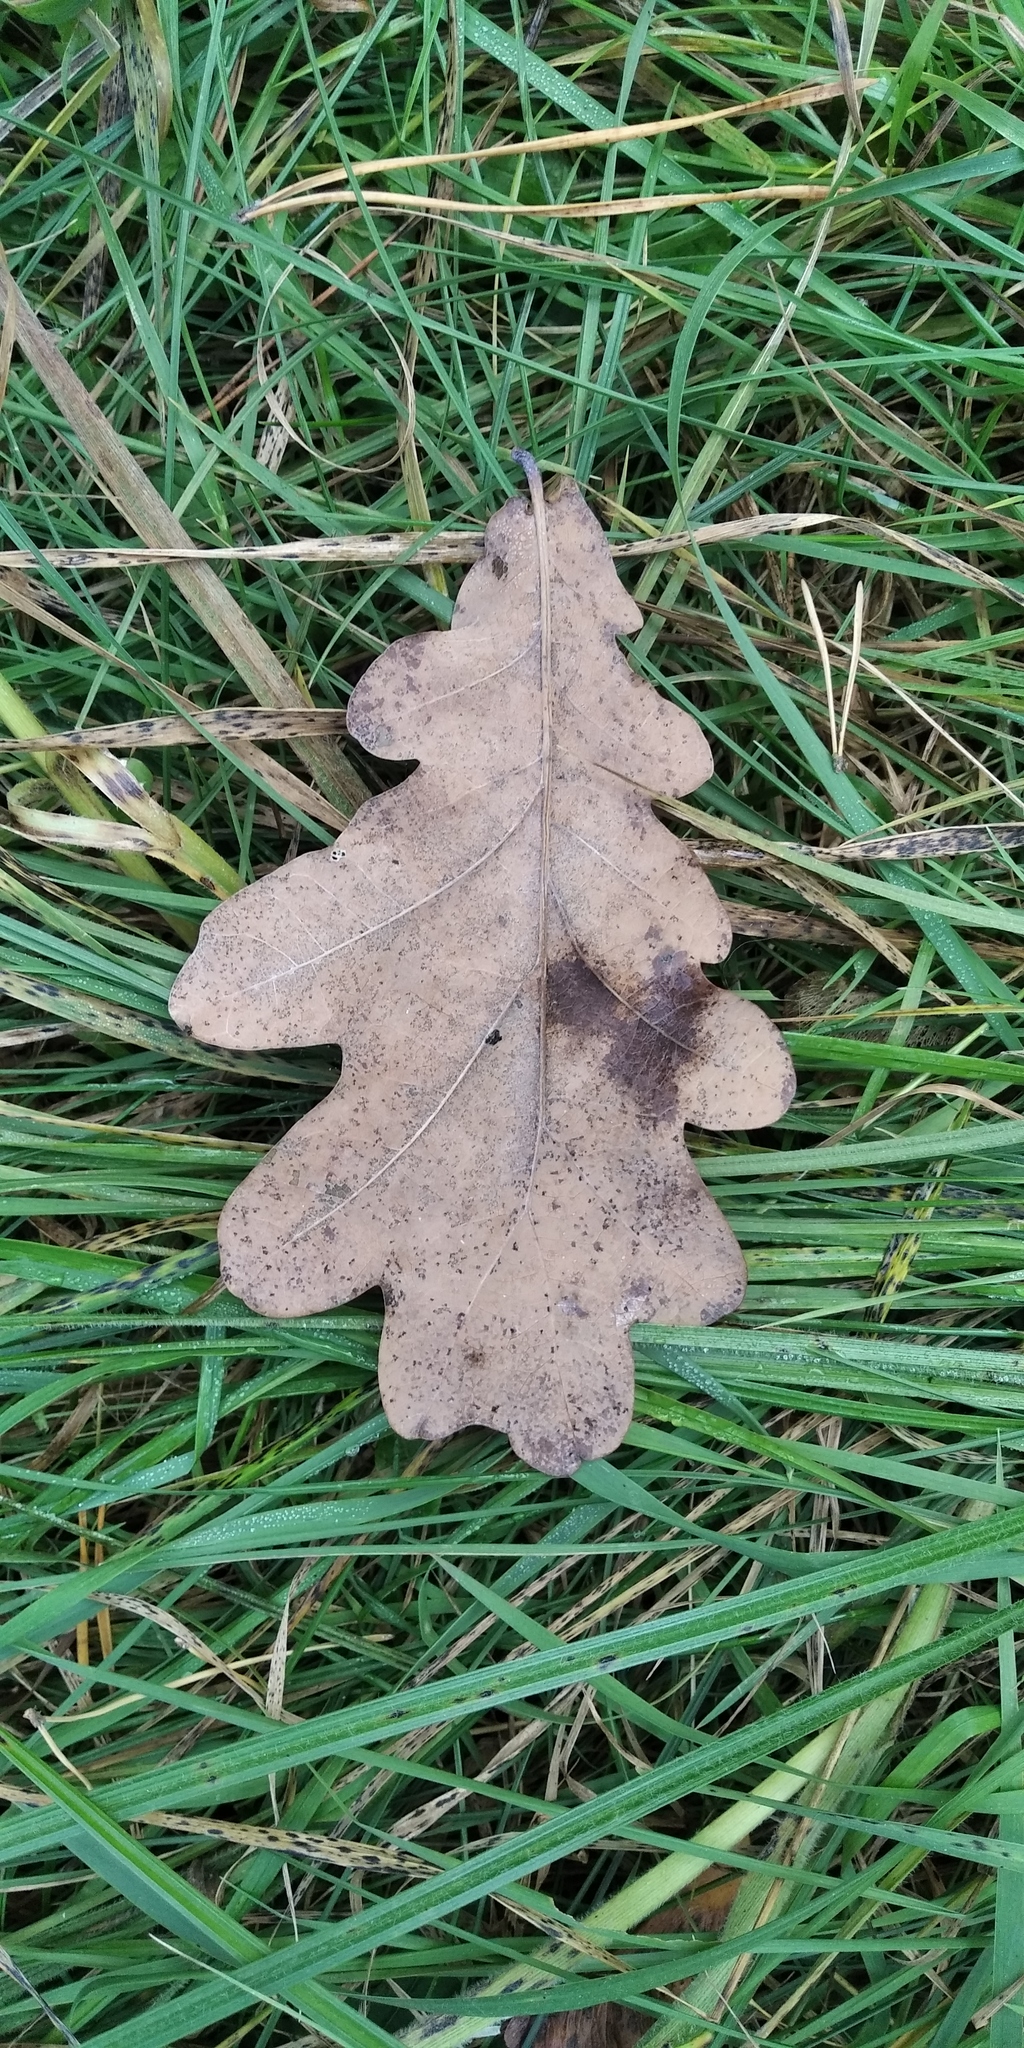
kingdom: Plantae
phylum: Tracheophyta
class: Magnoliopsida
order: Fagales
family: Fagaceae
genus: Quercus
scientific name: Quercus robur
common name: Pedunculate oak
